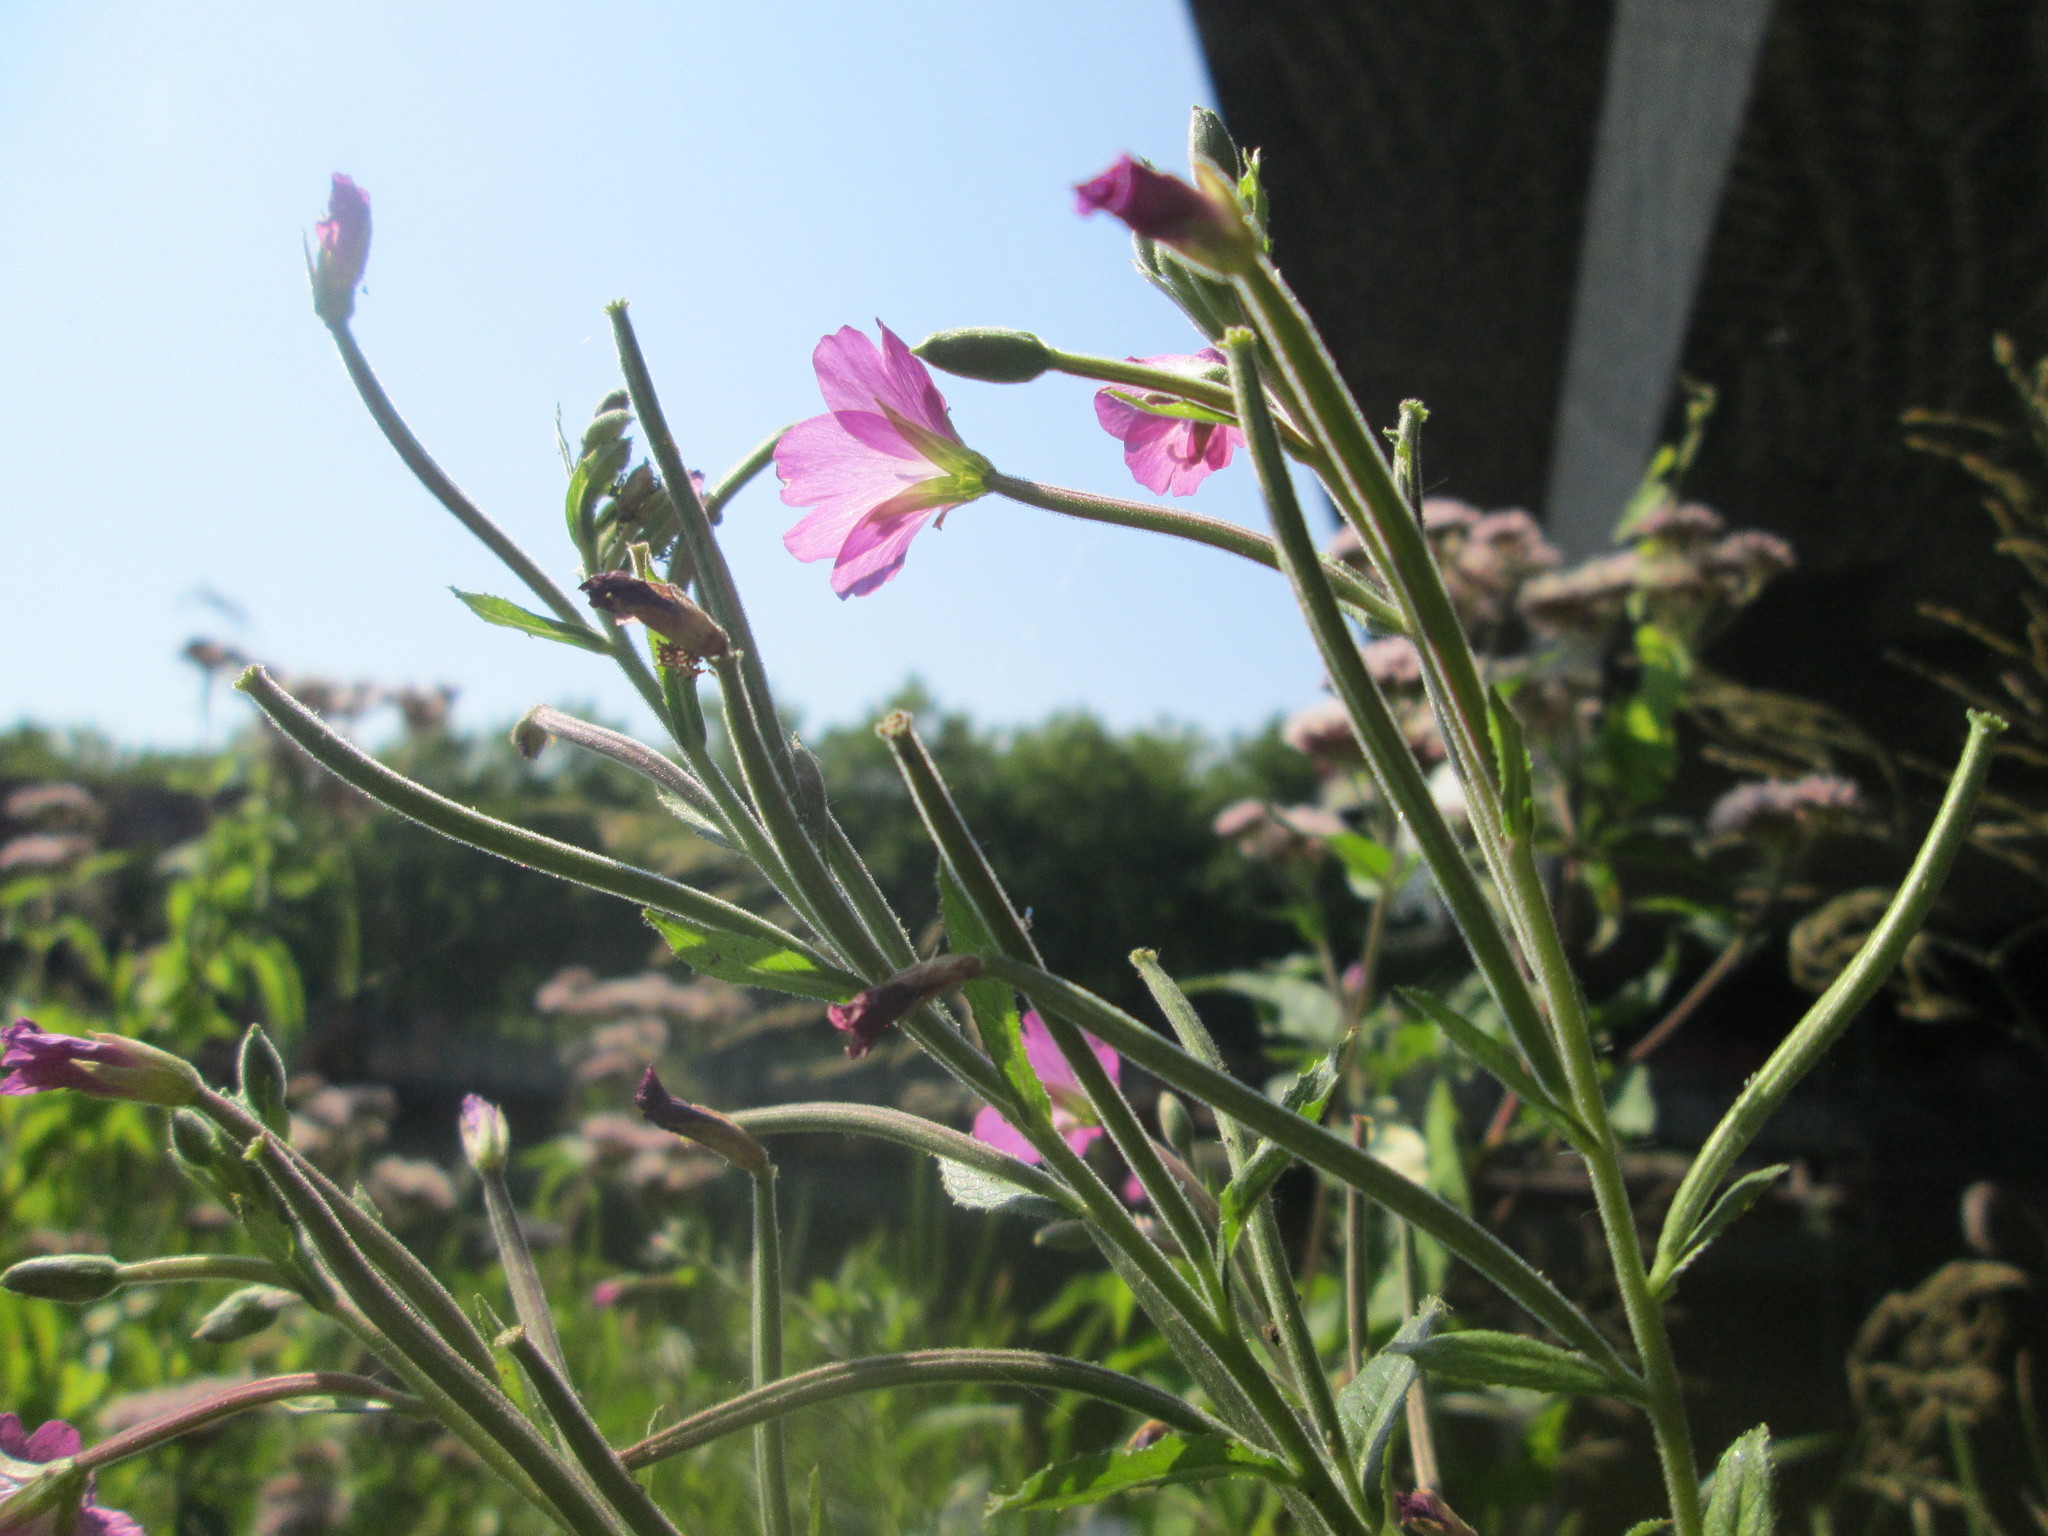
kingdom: Plantae
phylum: Tracheophyta
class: Magnoliopsida
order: Myrtales
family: Onagraceae
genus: Epilobium
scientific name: Epilobium hirsutum
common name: Great willowherb
